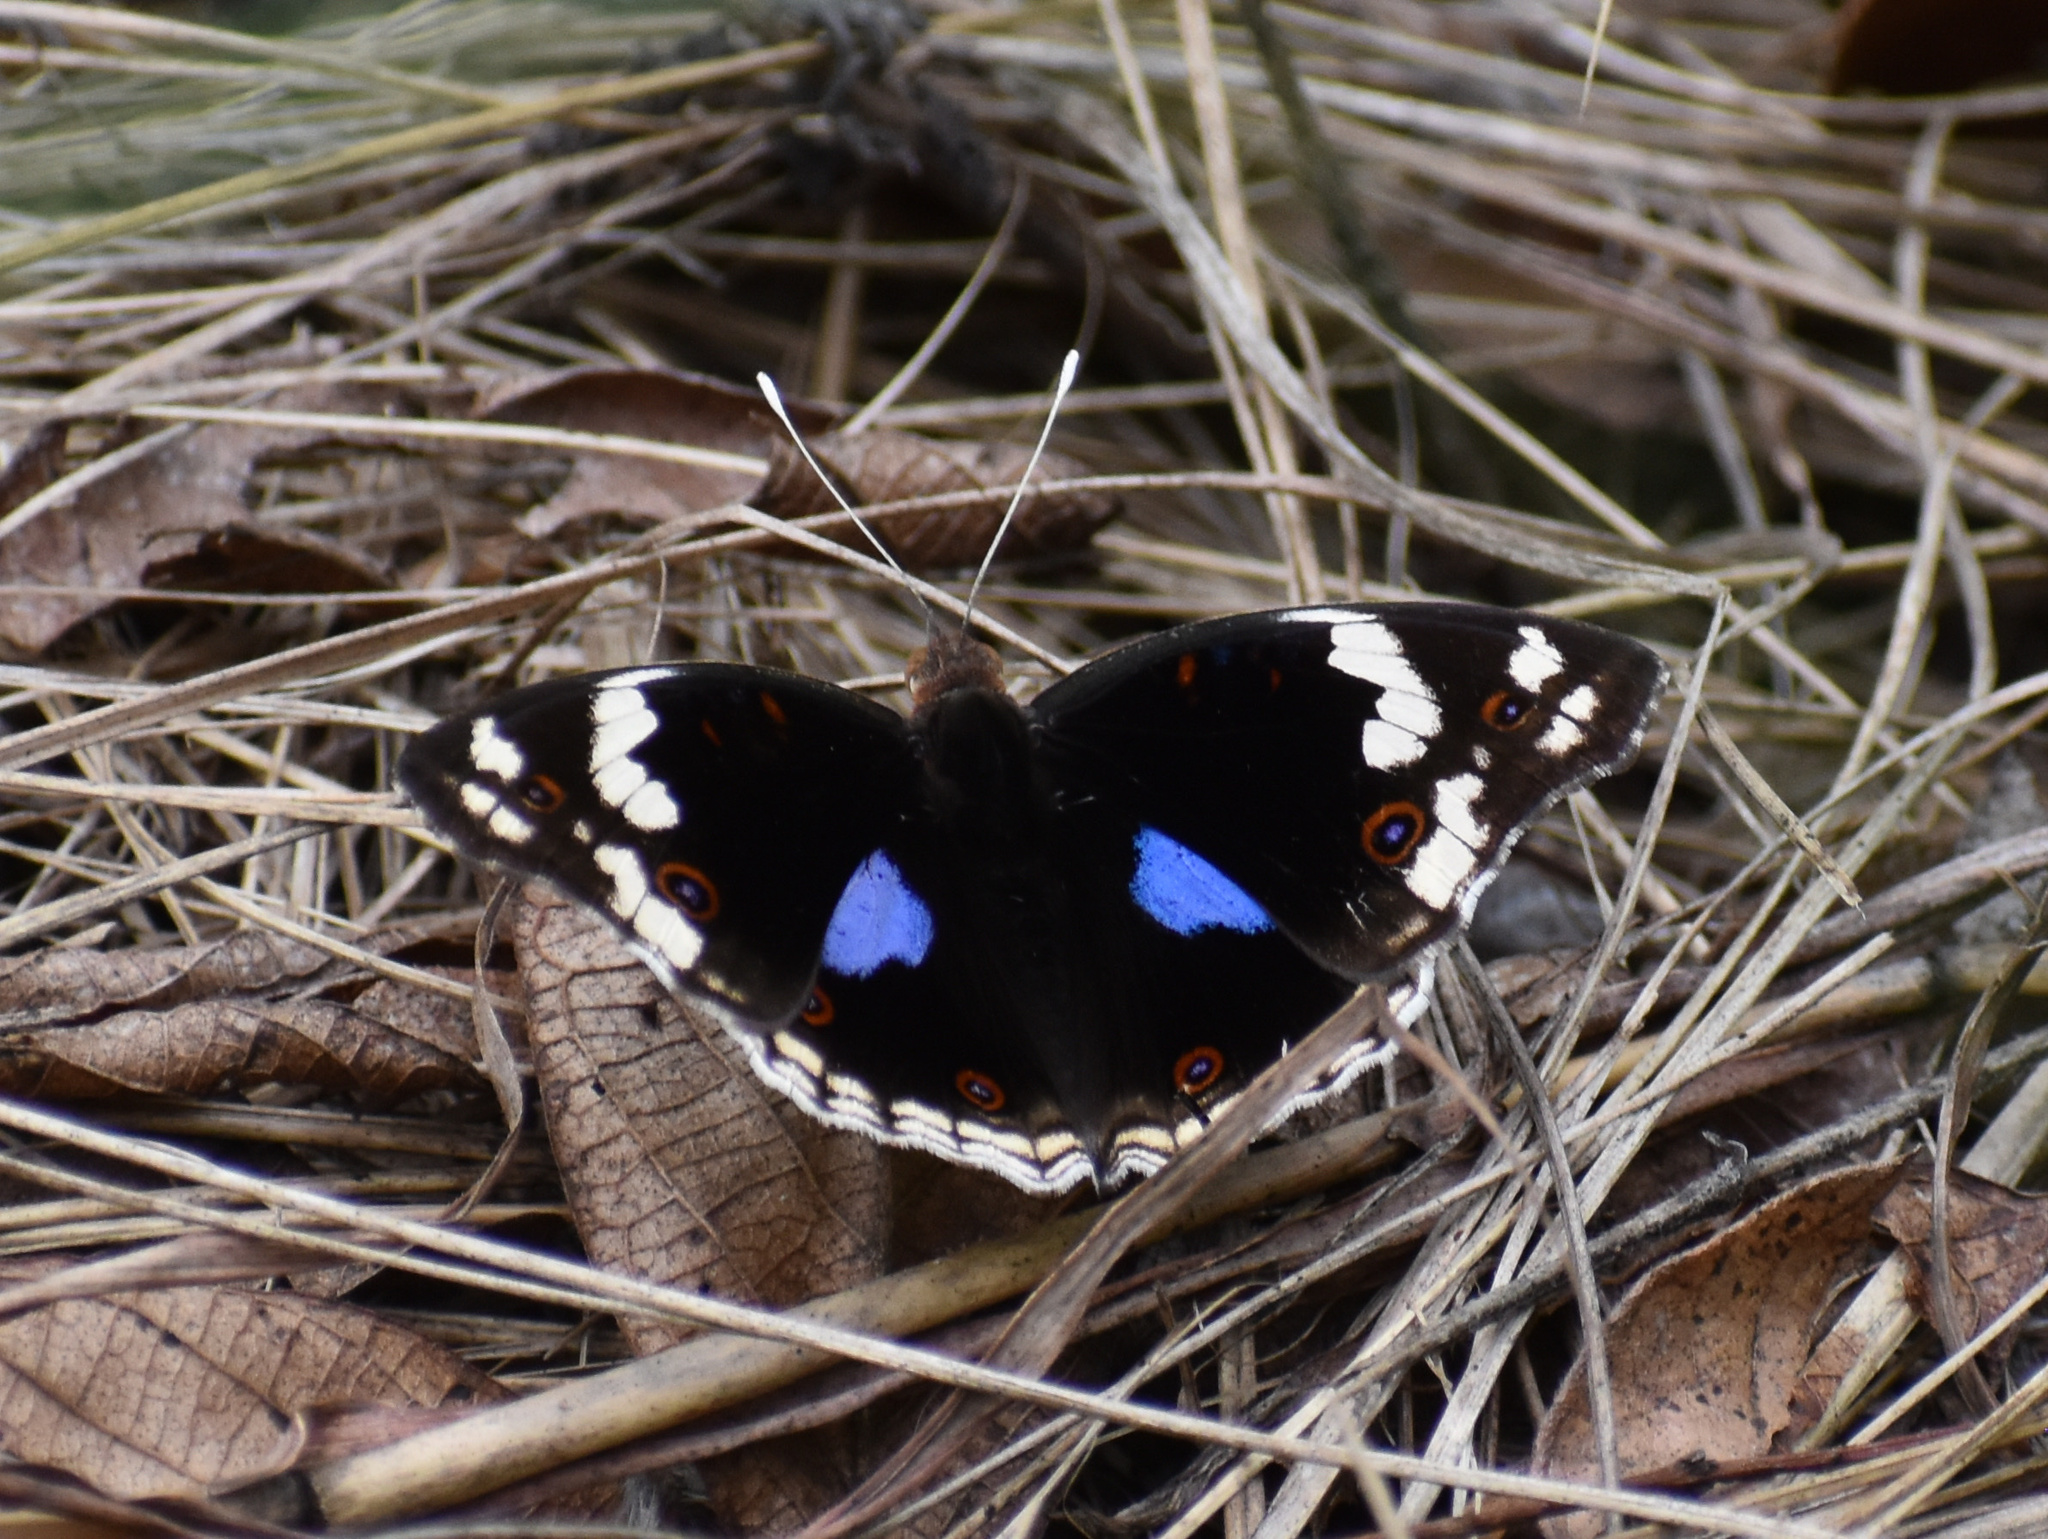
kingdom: Animalia
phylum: Arthropoda
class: Insecta
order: Lepidoptera
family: Nymphalidae
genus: Junonia
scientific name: Junonia oenone
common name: Dark blue pansy
